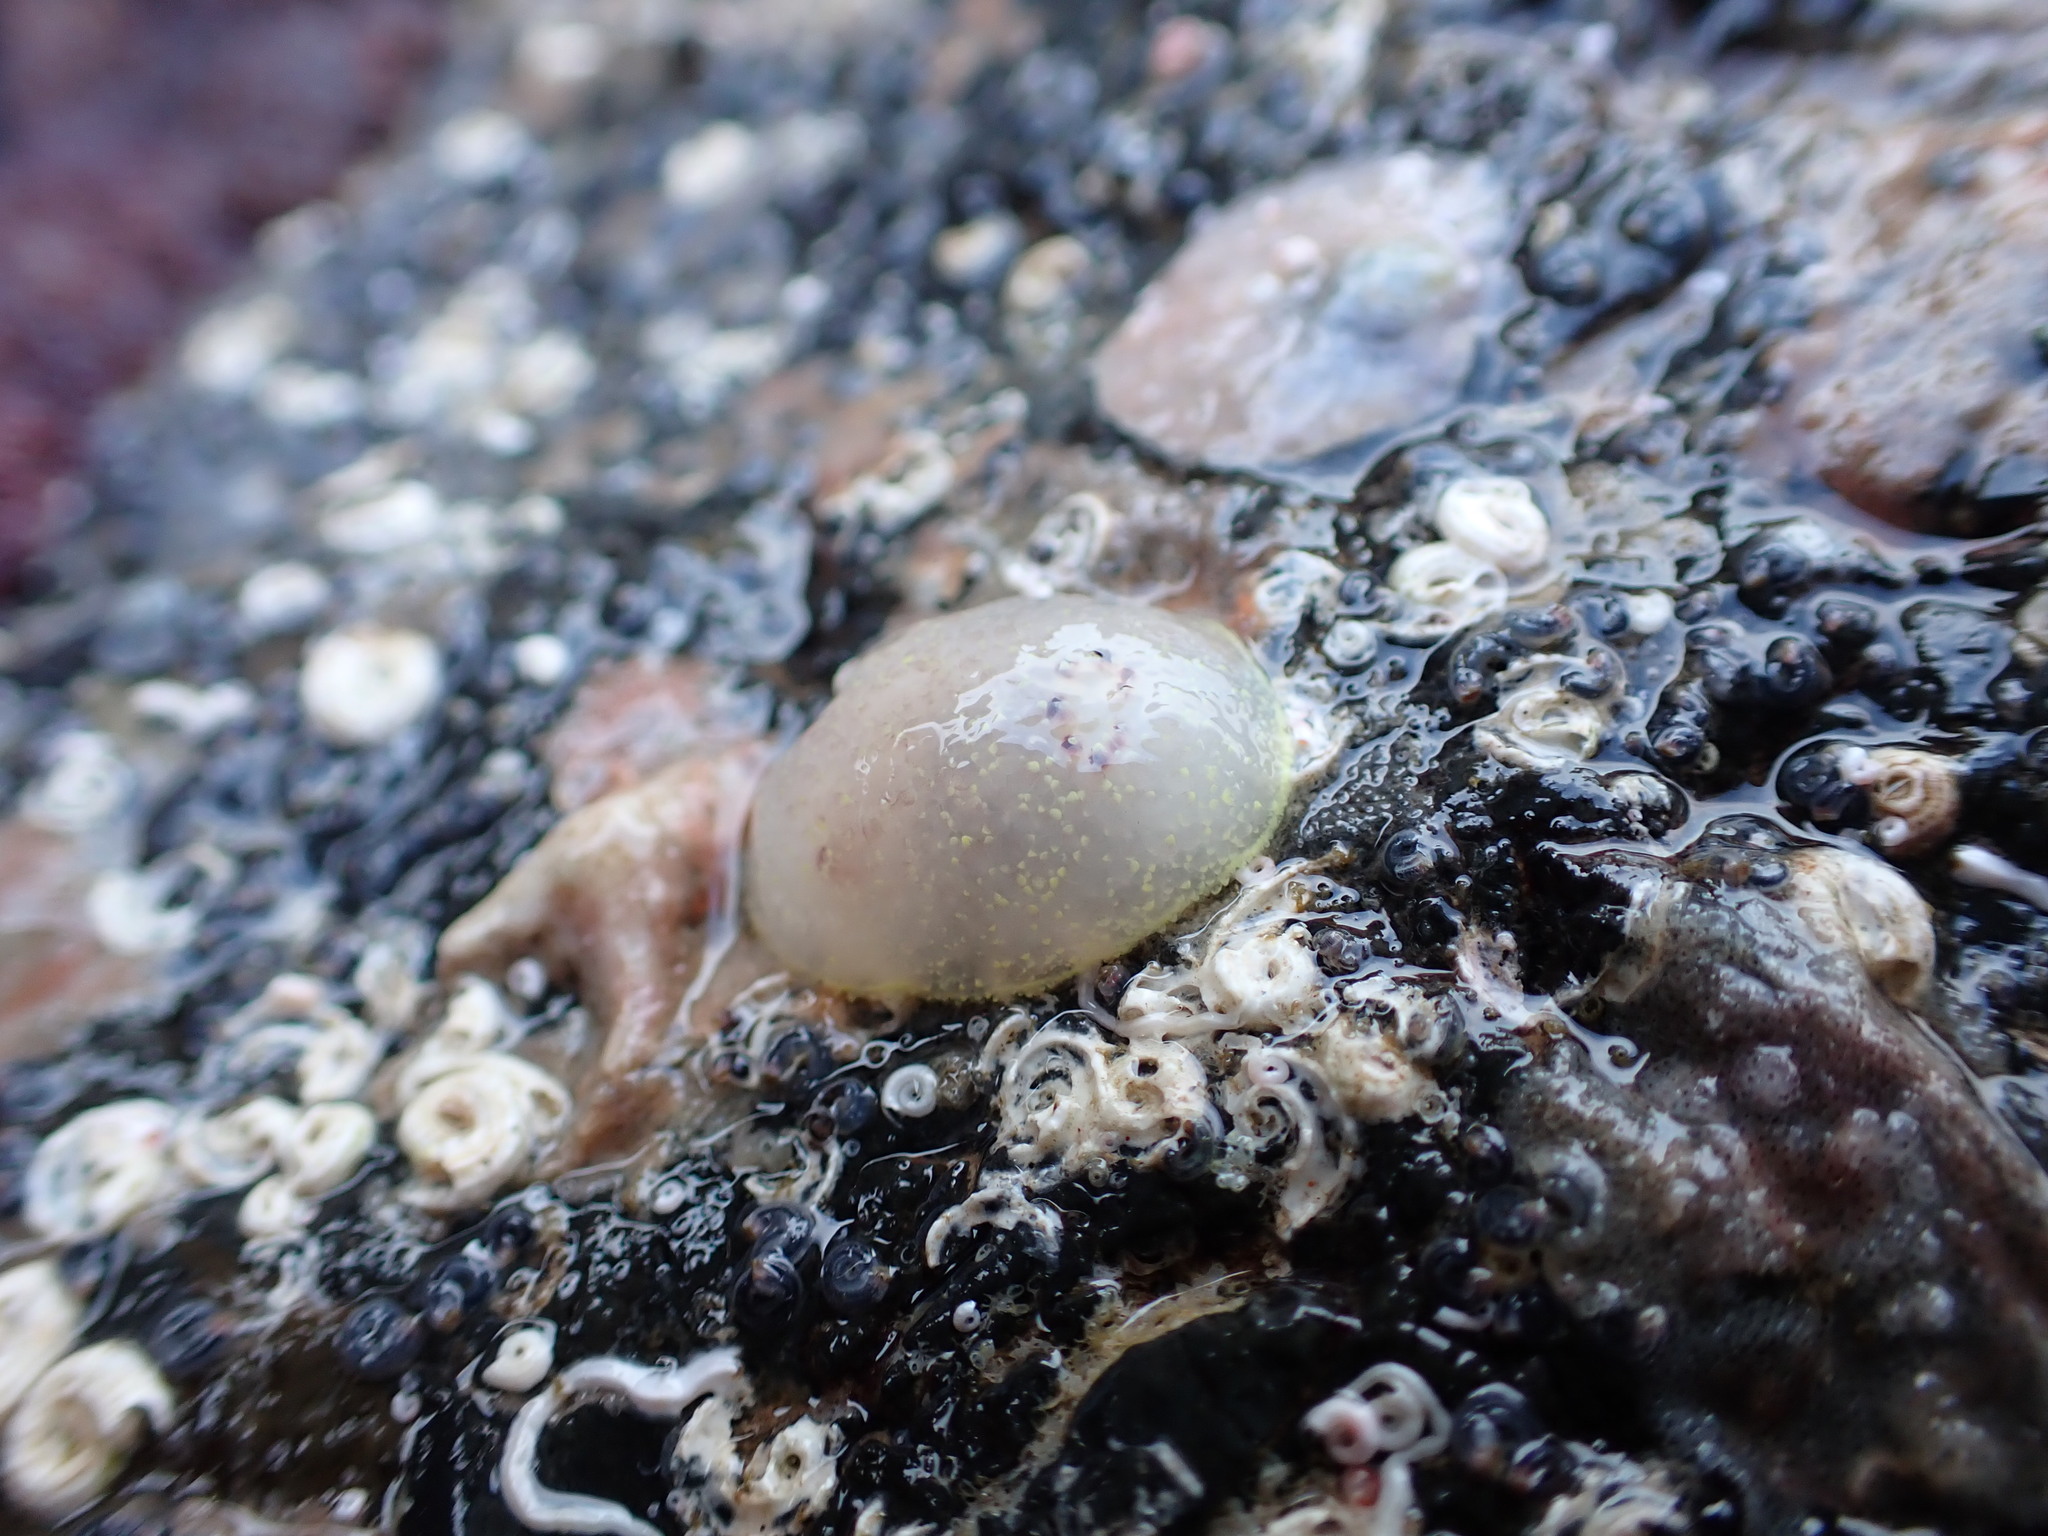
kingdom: Animalia
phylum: Mollusca
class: Gastropoda
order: Nudibranchia
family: Onchidorididae
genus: Acanthodoris
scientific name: Acanthodoris nanaimoensis
